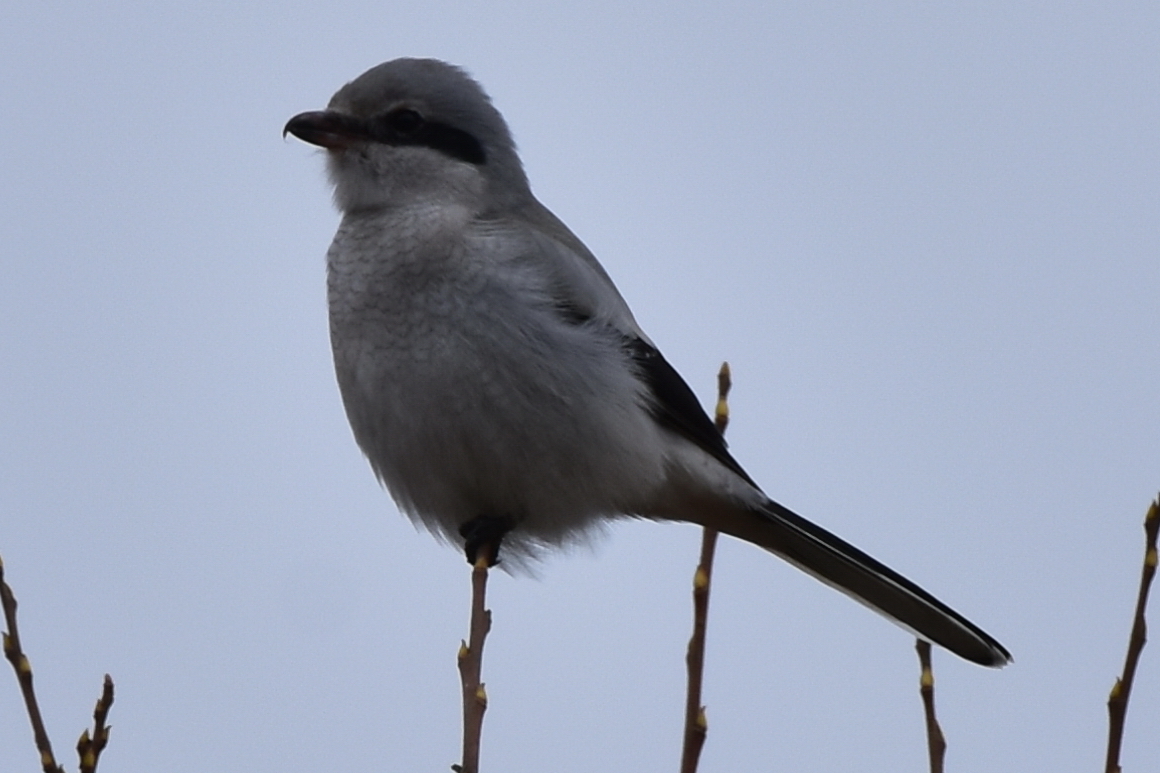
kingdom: Animalia
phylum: Chordata
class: Aves
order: Passeriformes
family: Laniidae
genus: Lanius
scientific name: Lanius excubitor
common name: Great grey shrike
